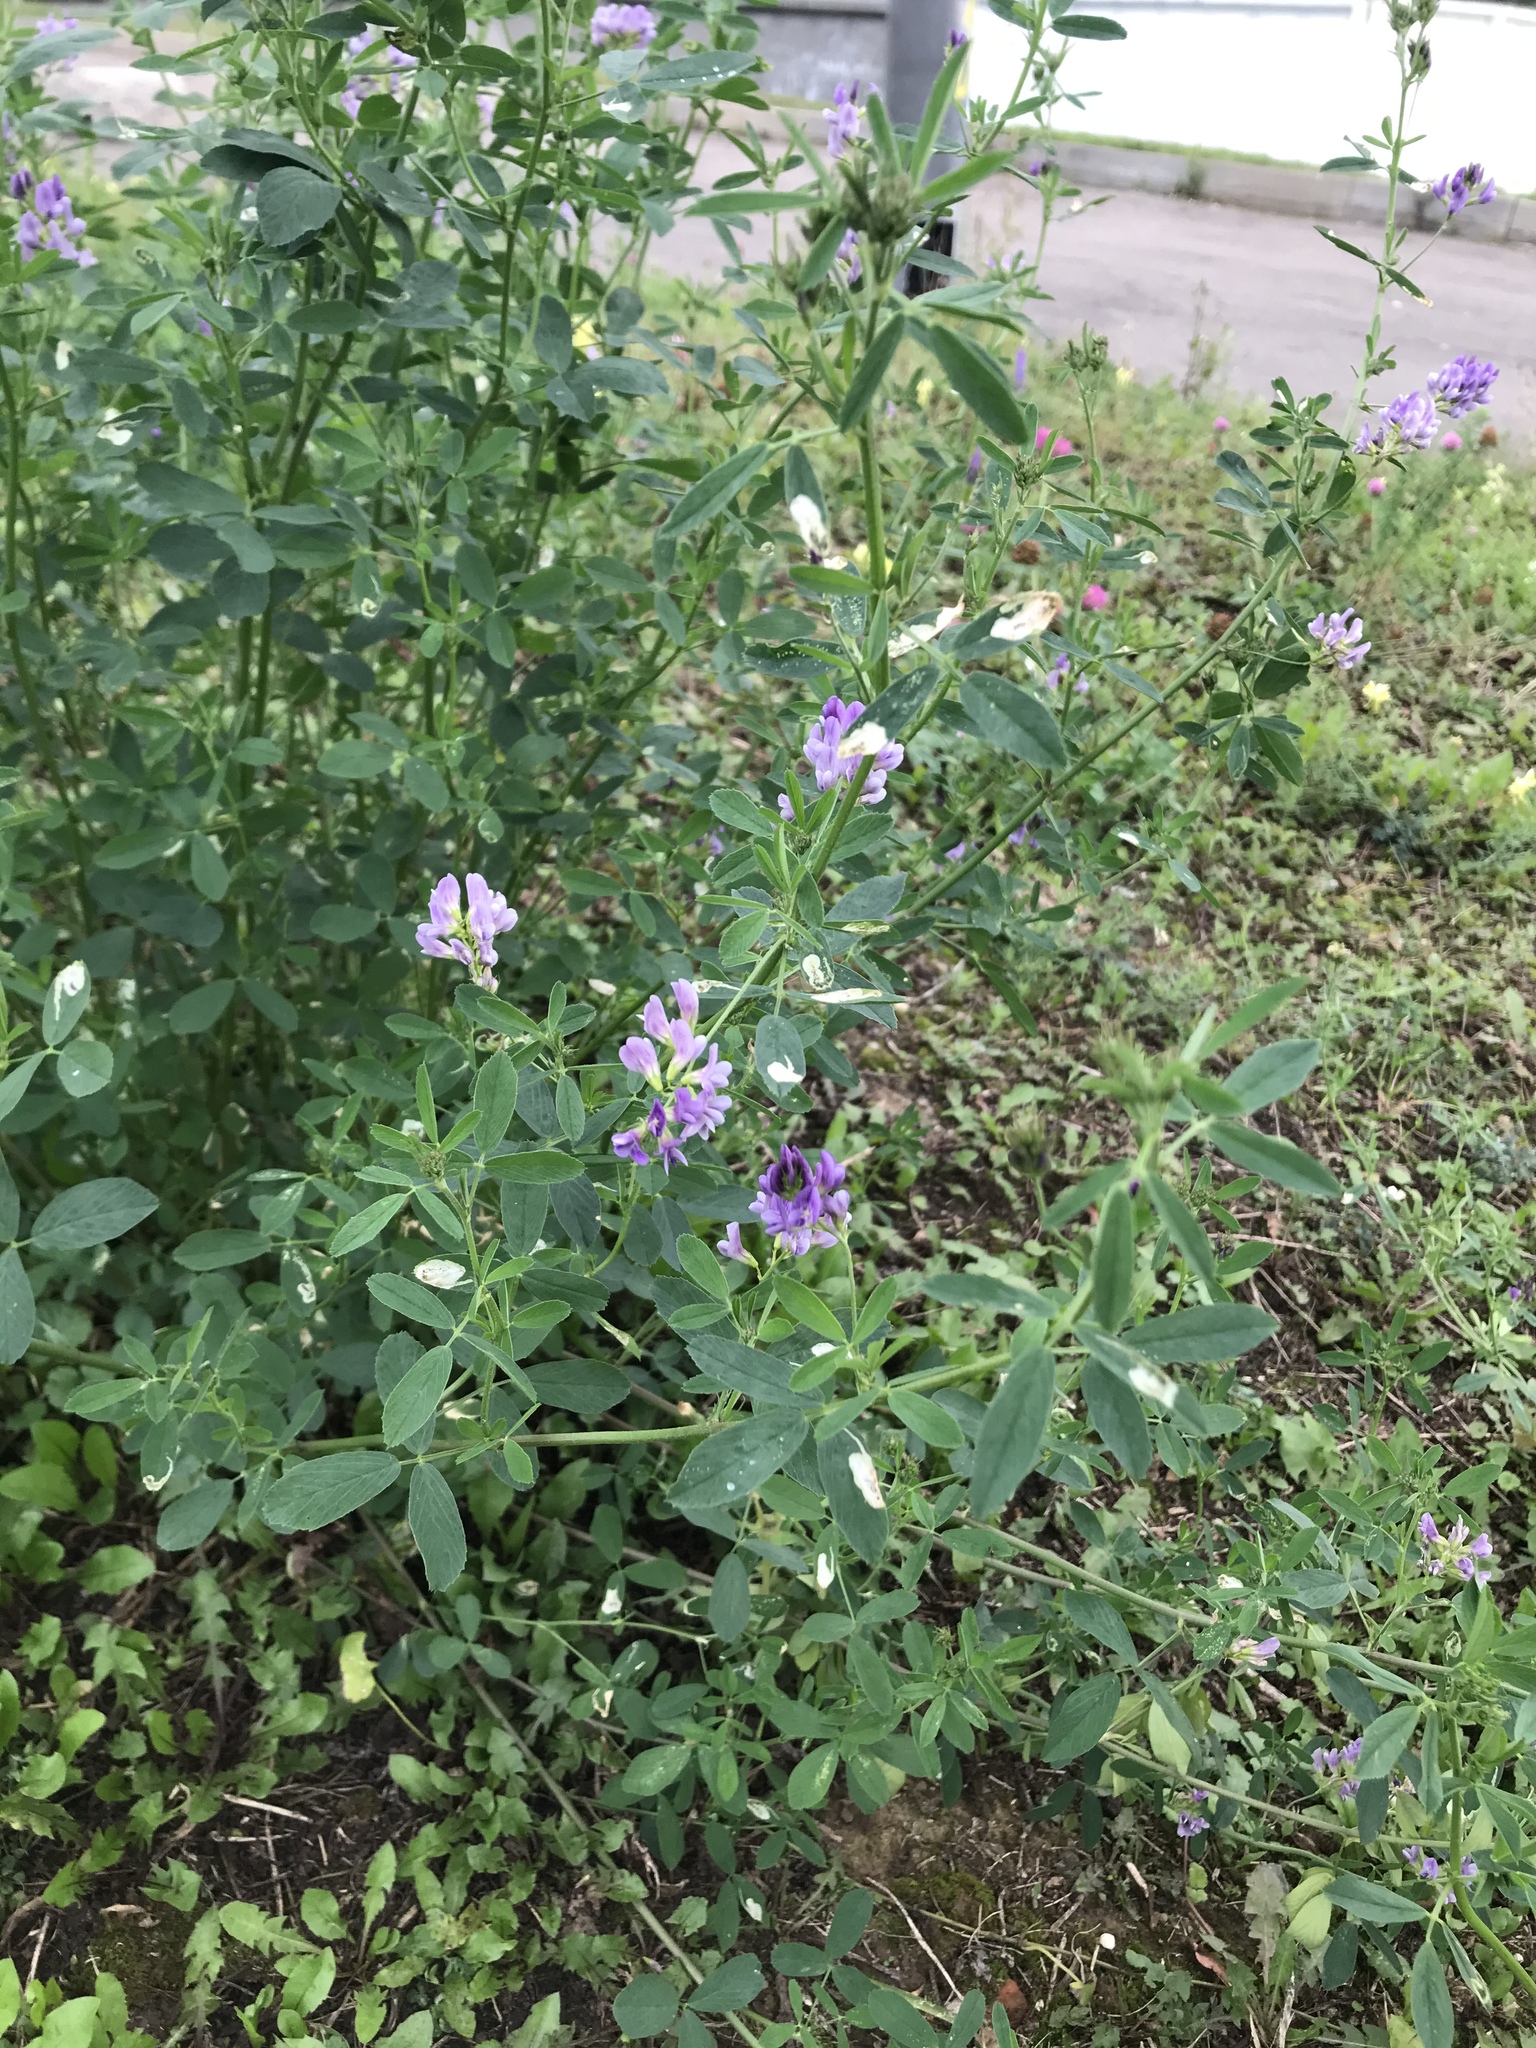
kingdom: Plantae
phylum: Tracheophyta
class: Magnoliopsida
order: Fabales
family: Fabaceae
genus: Medicago
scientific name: Medicago sativa
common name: Alfalfa
